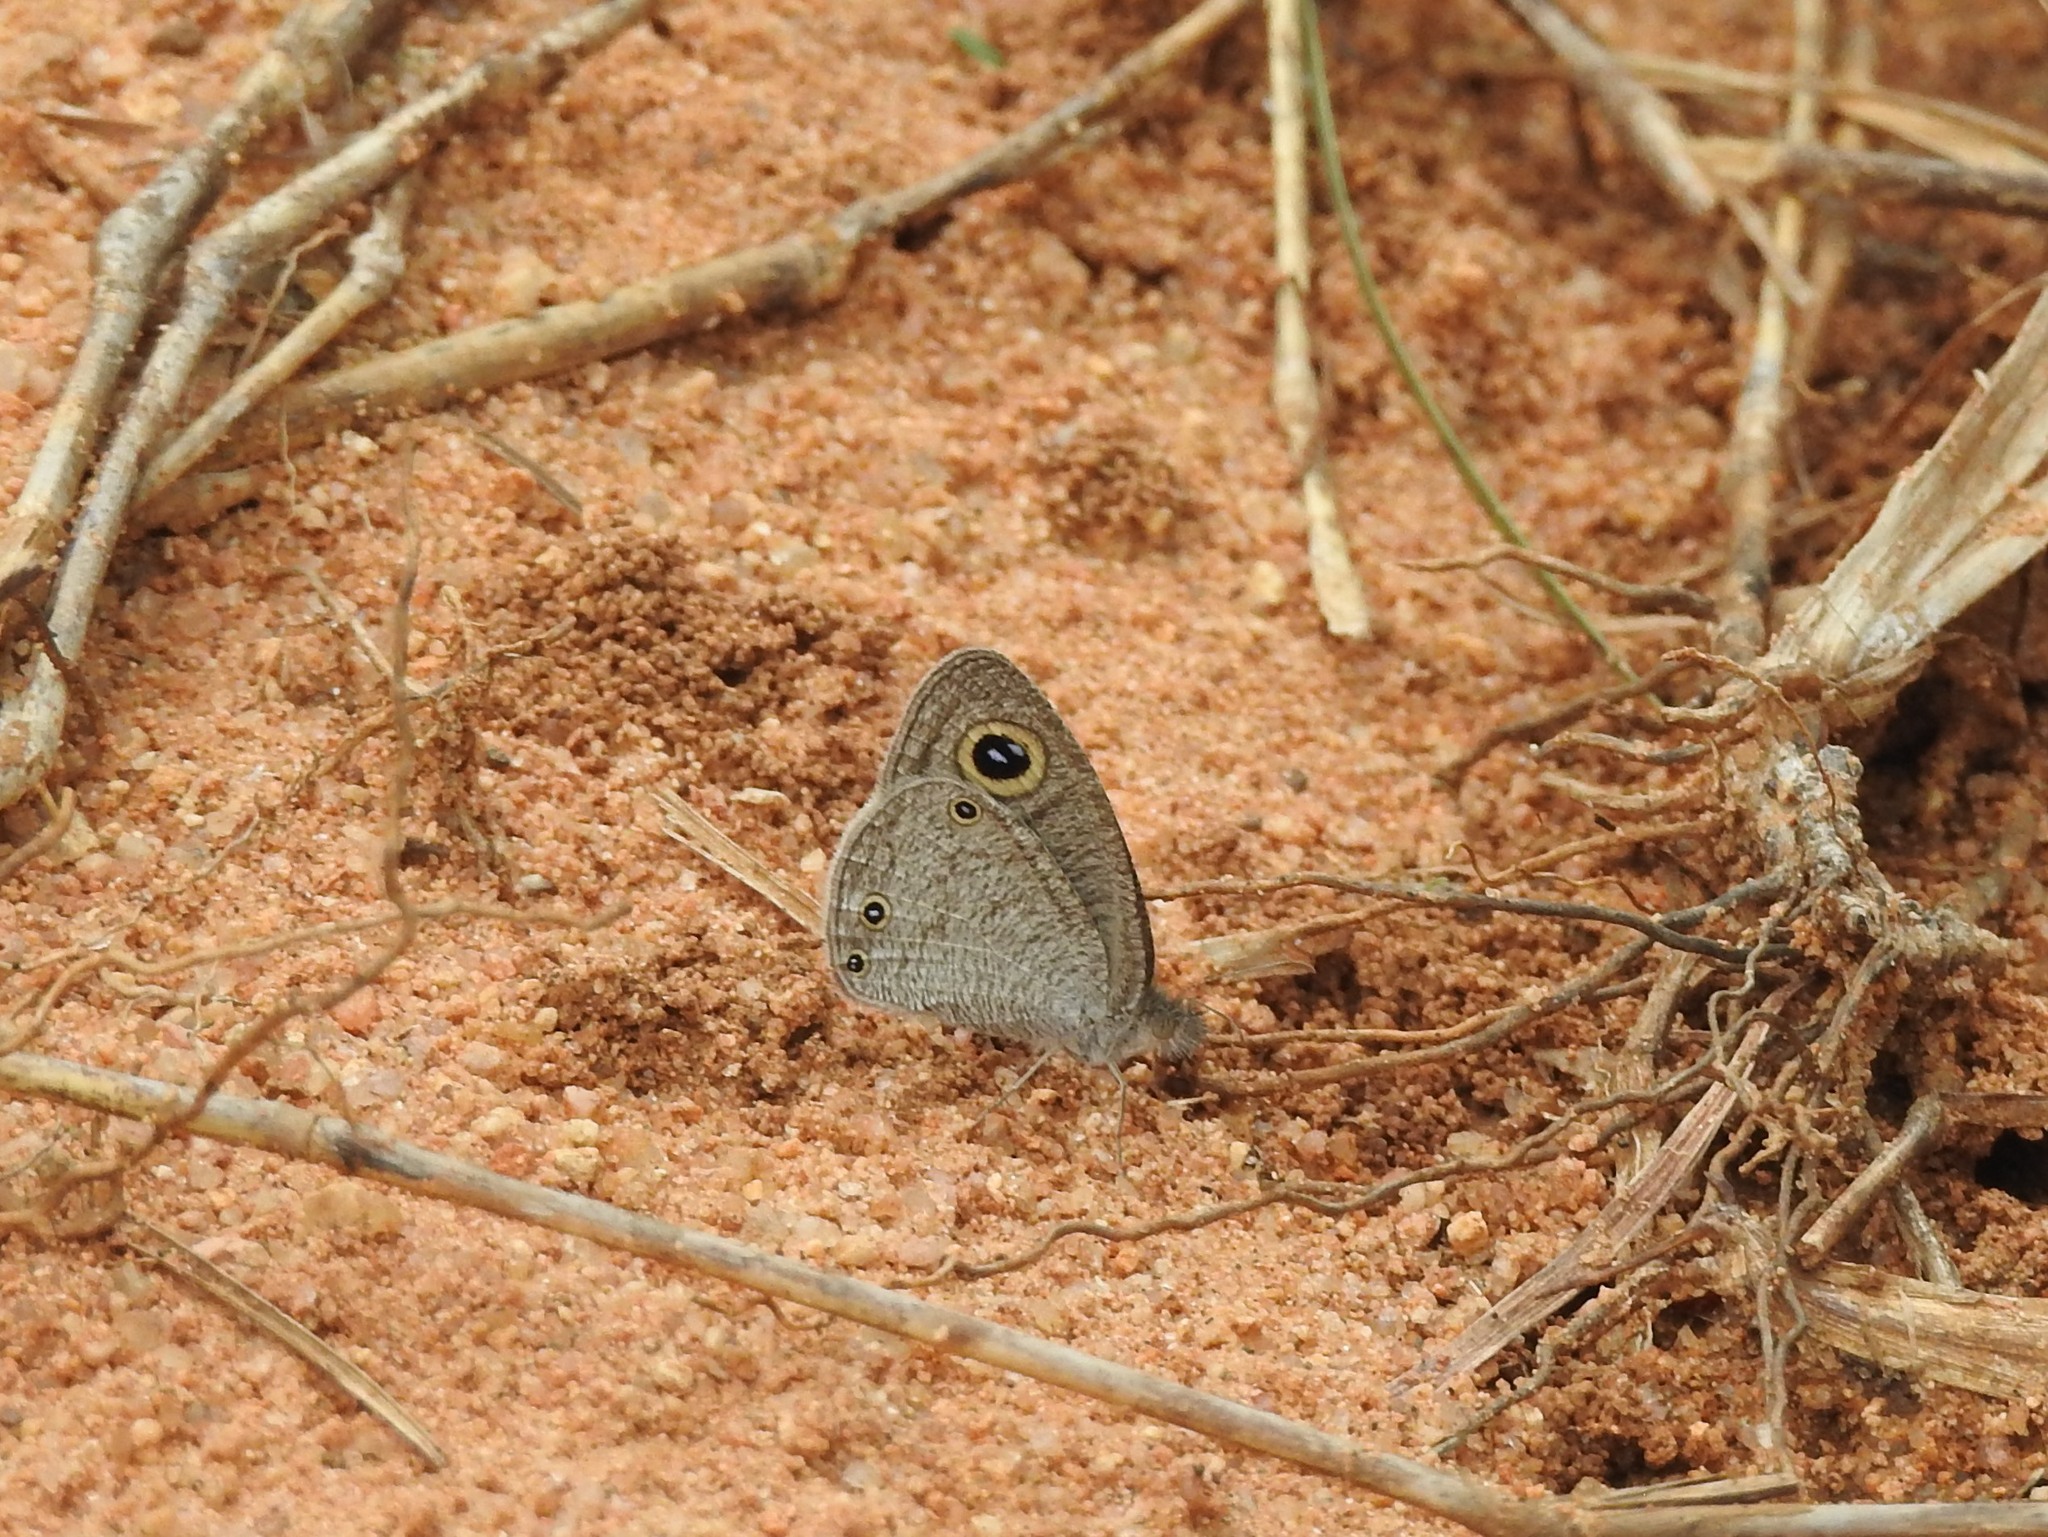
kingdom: Animalia
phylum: Arthropoda
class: Insecta
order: Lepidoptera
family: Nymphalidae
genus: Ypthima
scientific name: Ypthima asterope
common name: African ringlet
